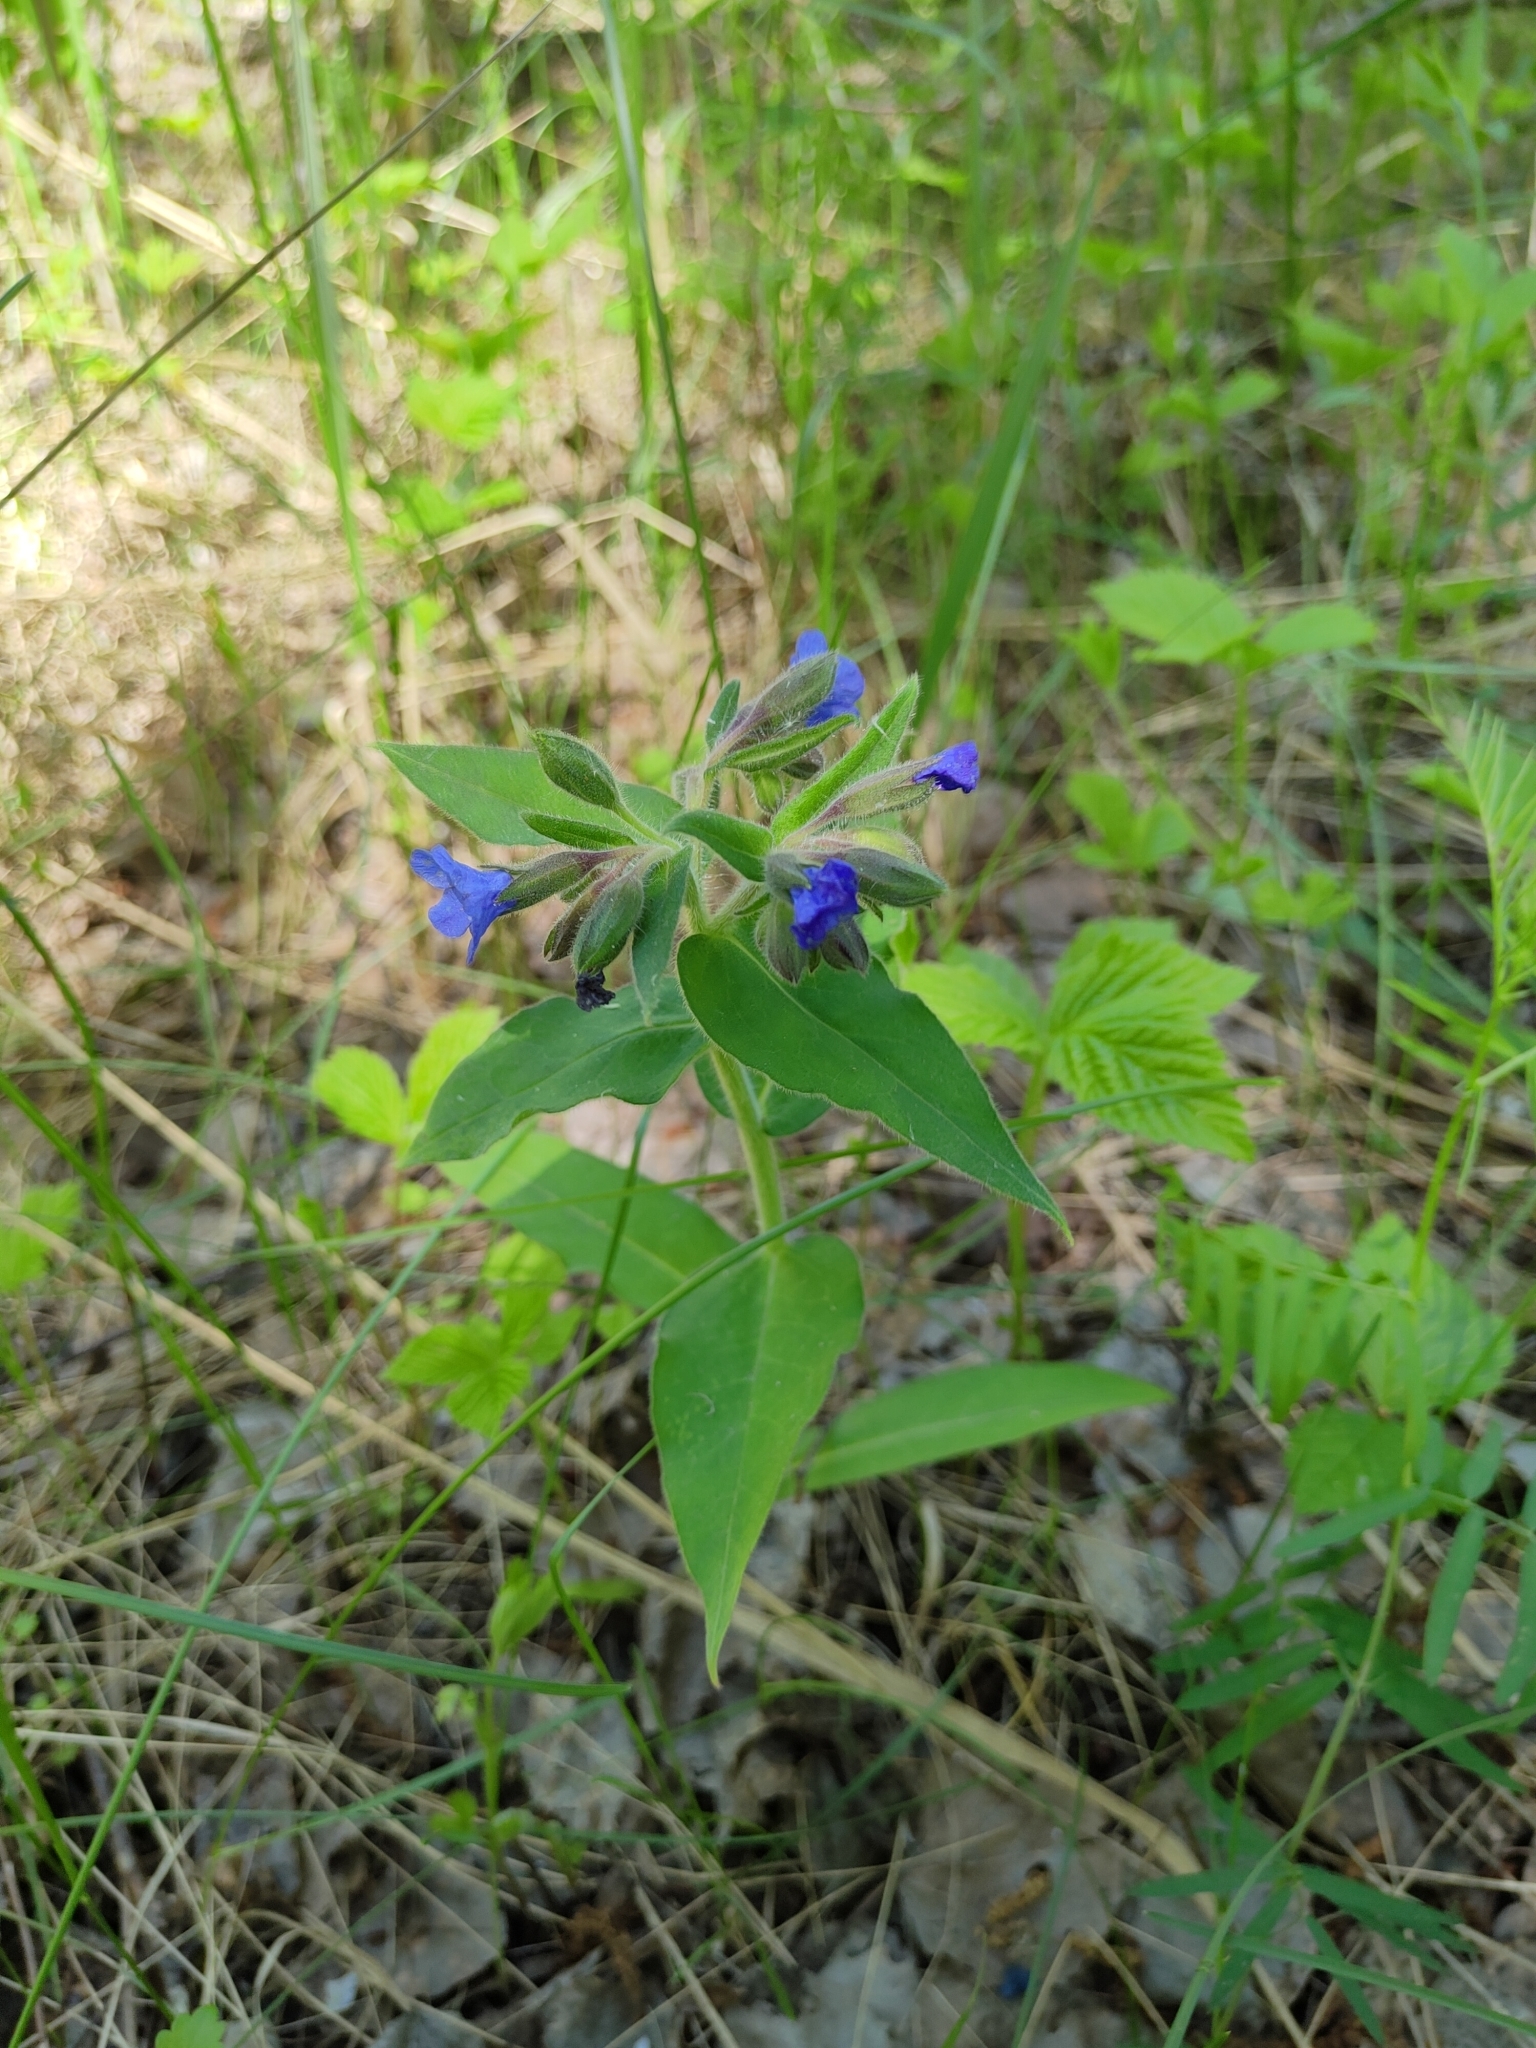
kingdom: Plantae
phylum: Tracheophyta
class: Magnoliopsida
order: Boraginales
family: Boraginaceae
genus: Pulmonaria
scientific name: Pulmonaria mollis
